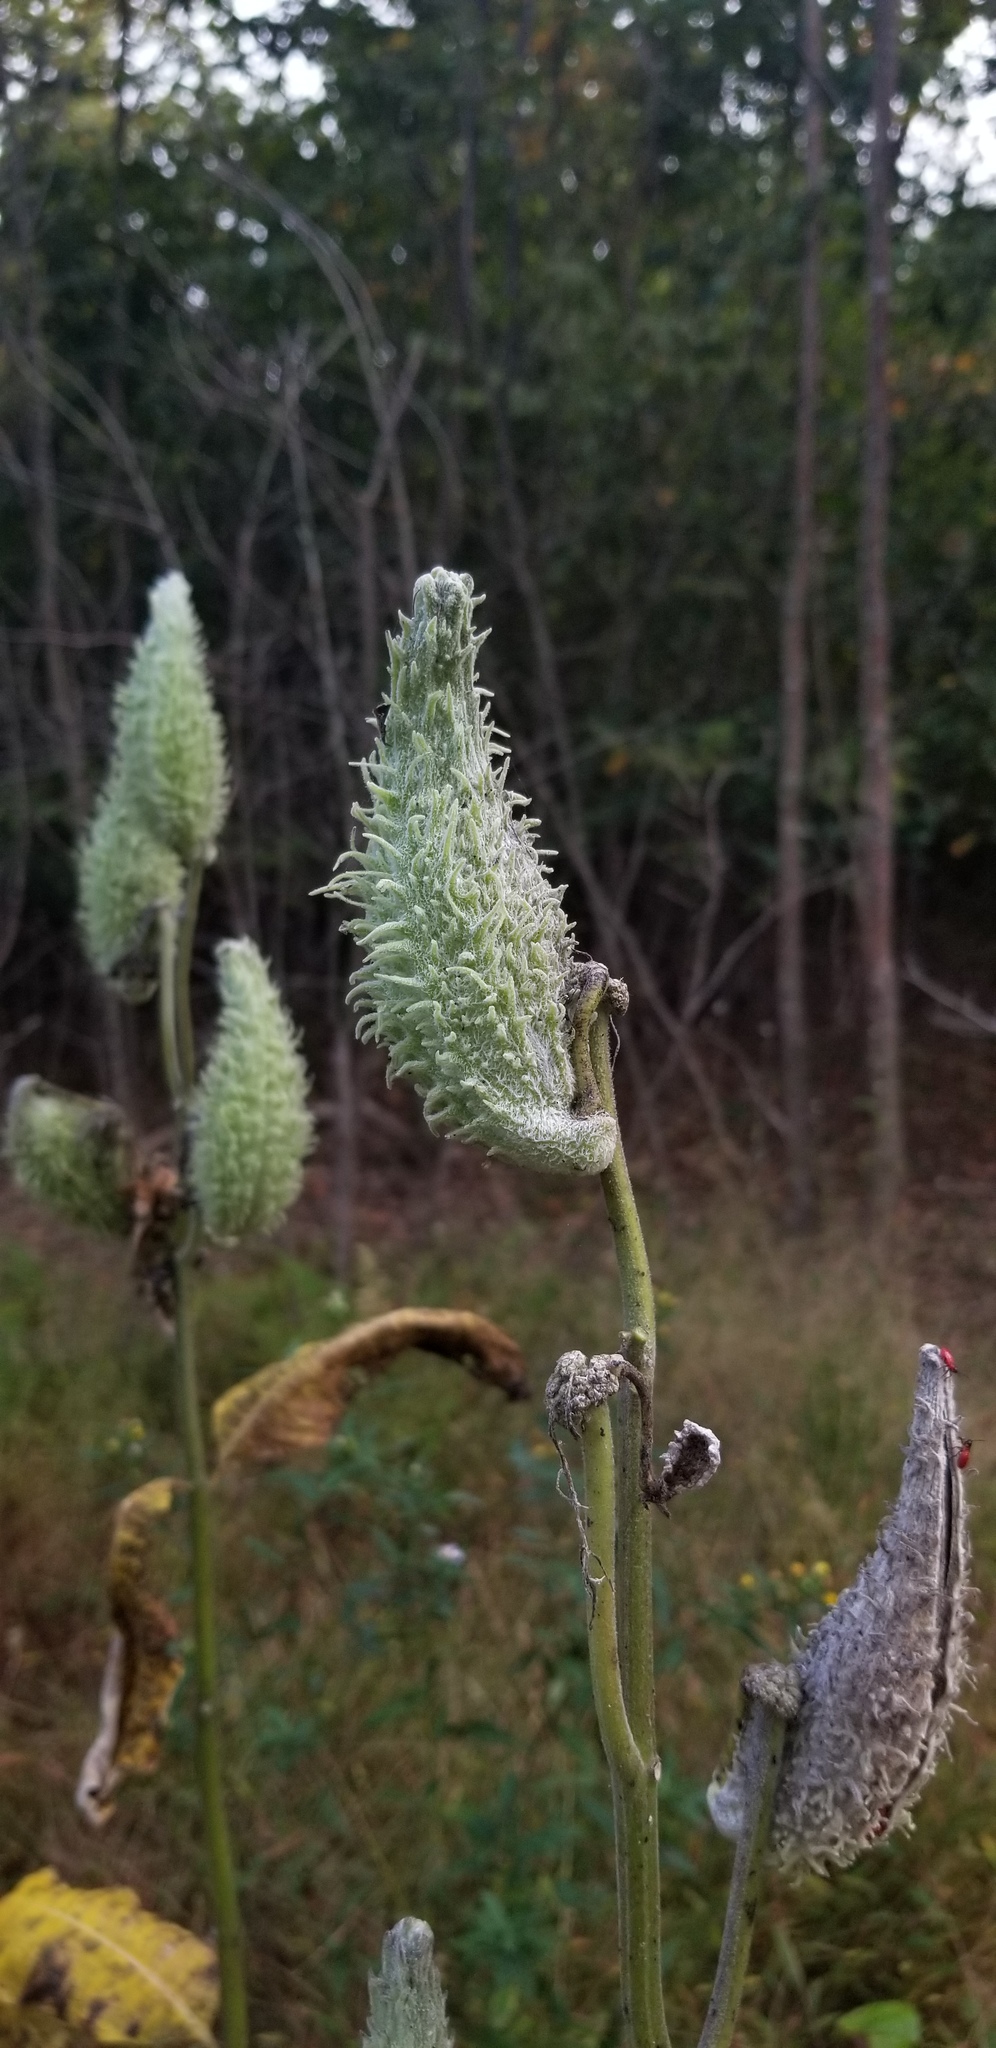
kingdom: Plantae
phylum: Tracheophyta
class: Magnoliopsida
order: Gentianales
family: Apocynaceae
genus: Asclepias
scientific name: Asclepias syriaca
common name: Common milkweed
